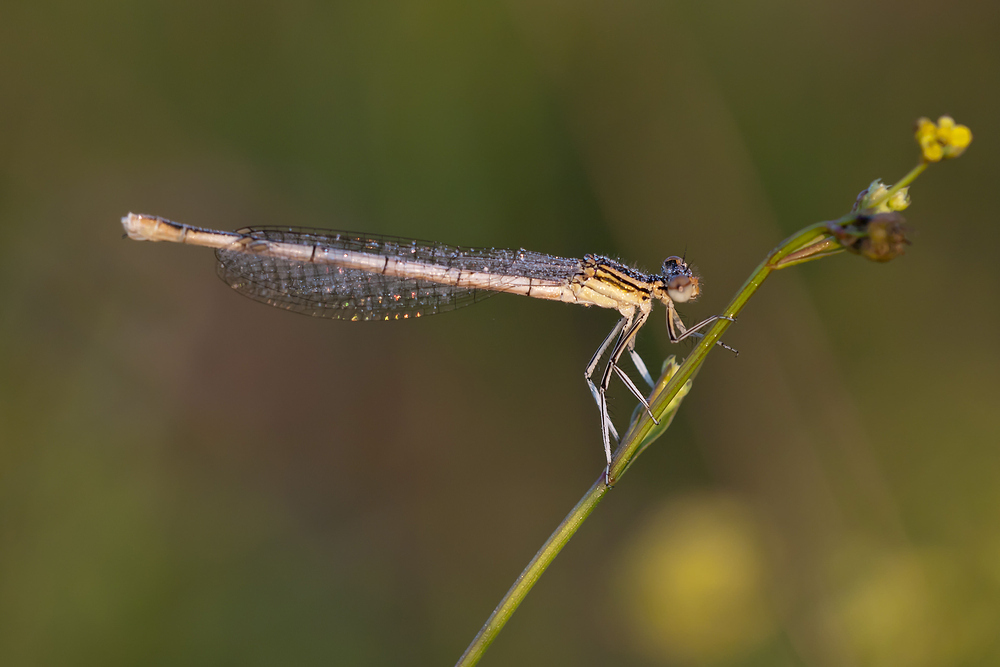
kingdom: Animalia
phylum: Arthropoda
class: Insecta
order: Odonata
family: Platycnemididae
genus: Platycnemis
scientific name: Platycnemis pennipes
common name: White-legged damselfly
